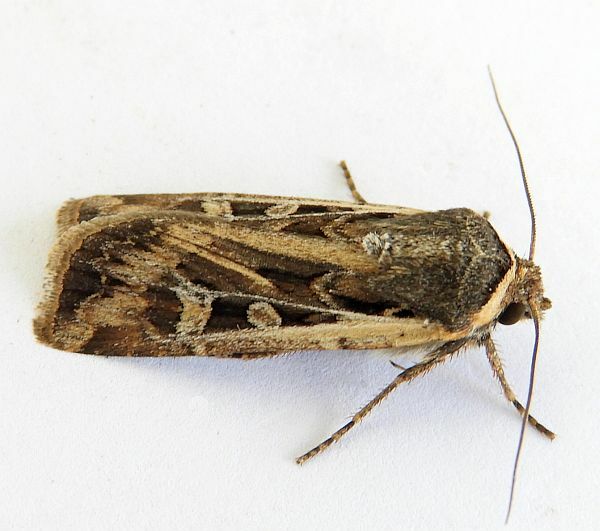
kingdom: Animalia
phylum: Arthropoda
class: Insecta
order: Lepidoptera
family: Noctuidae
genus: Euxoa
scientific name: Euxoa auxiliaris
